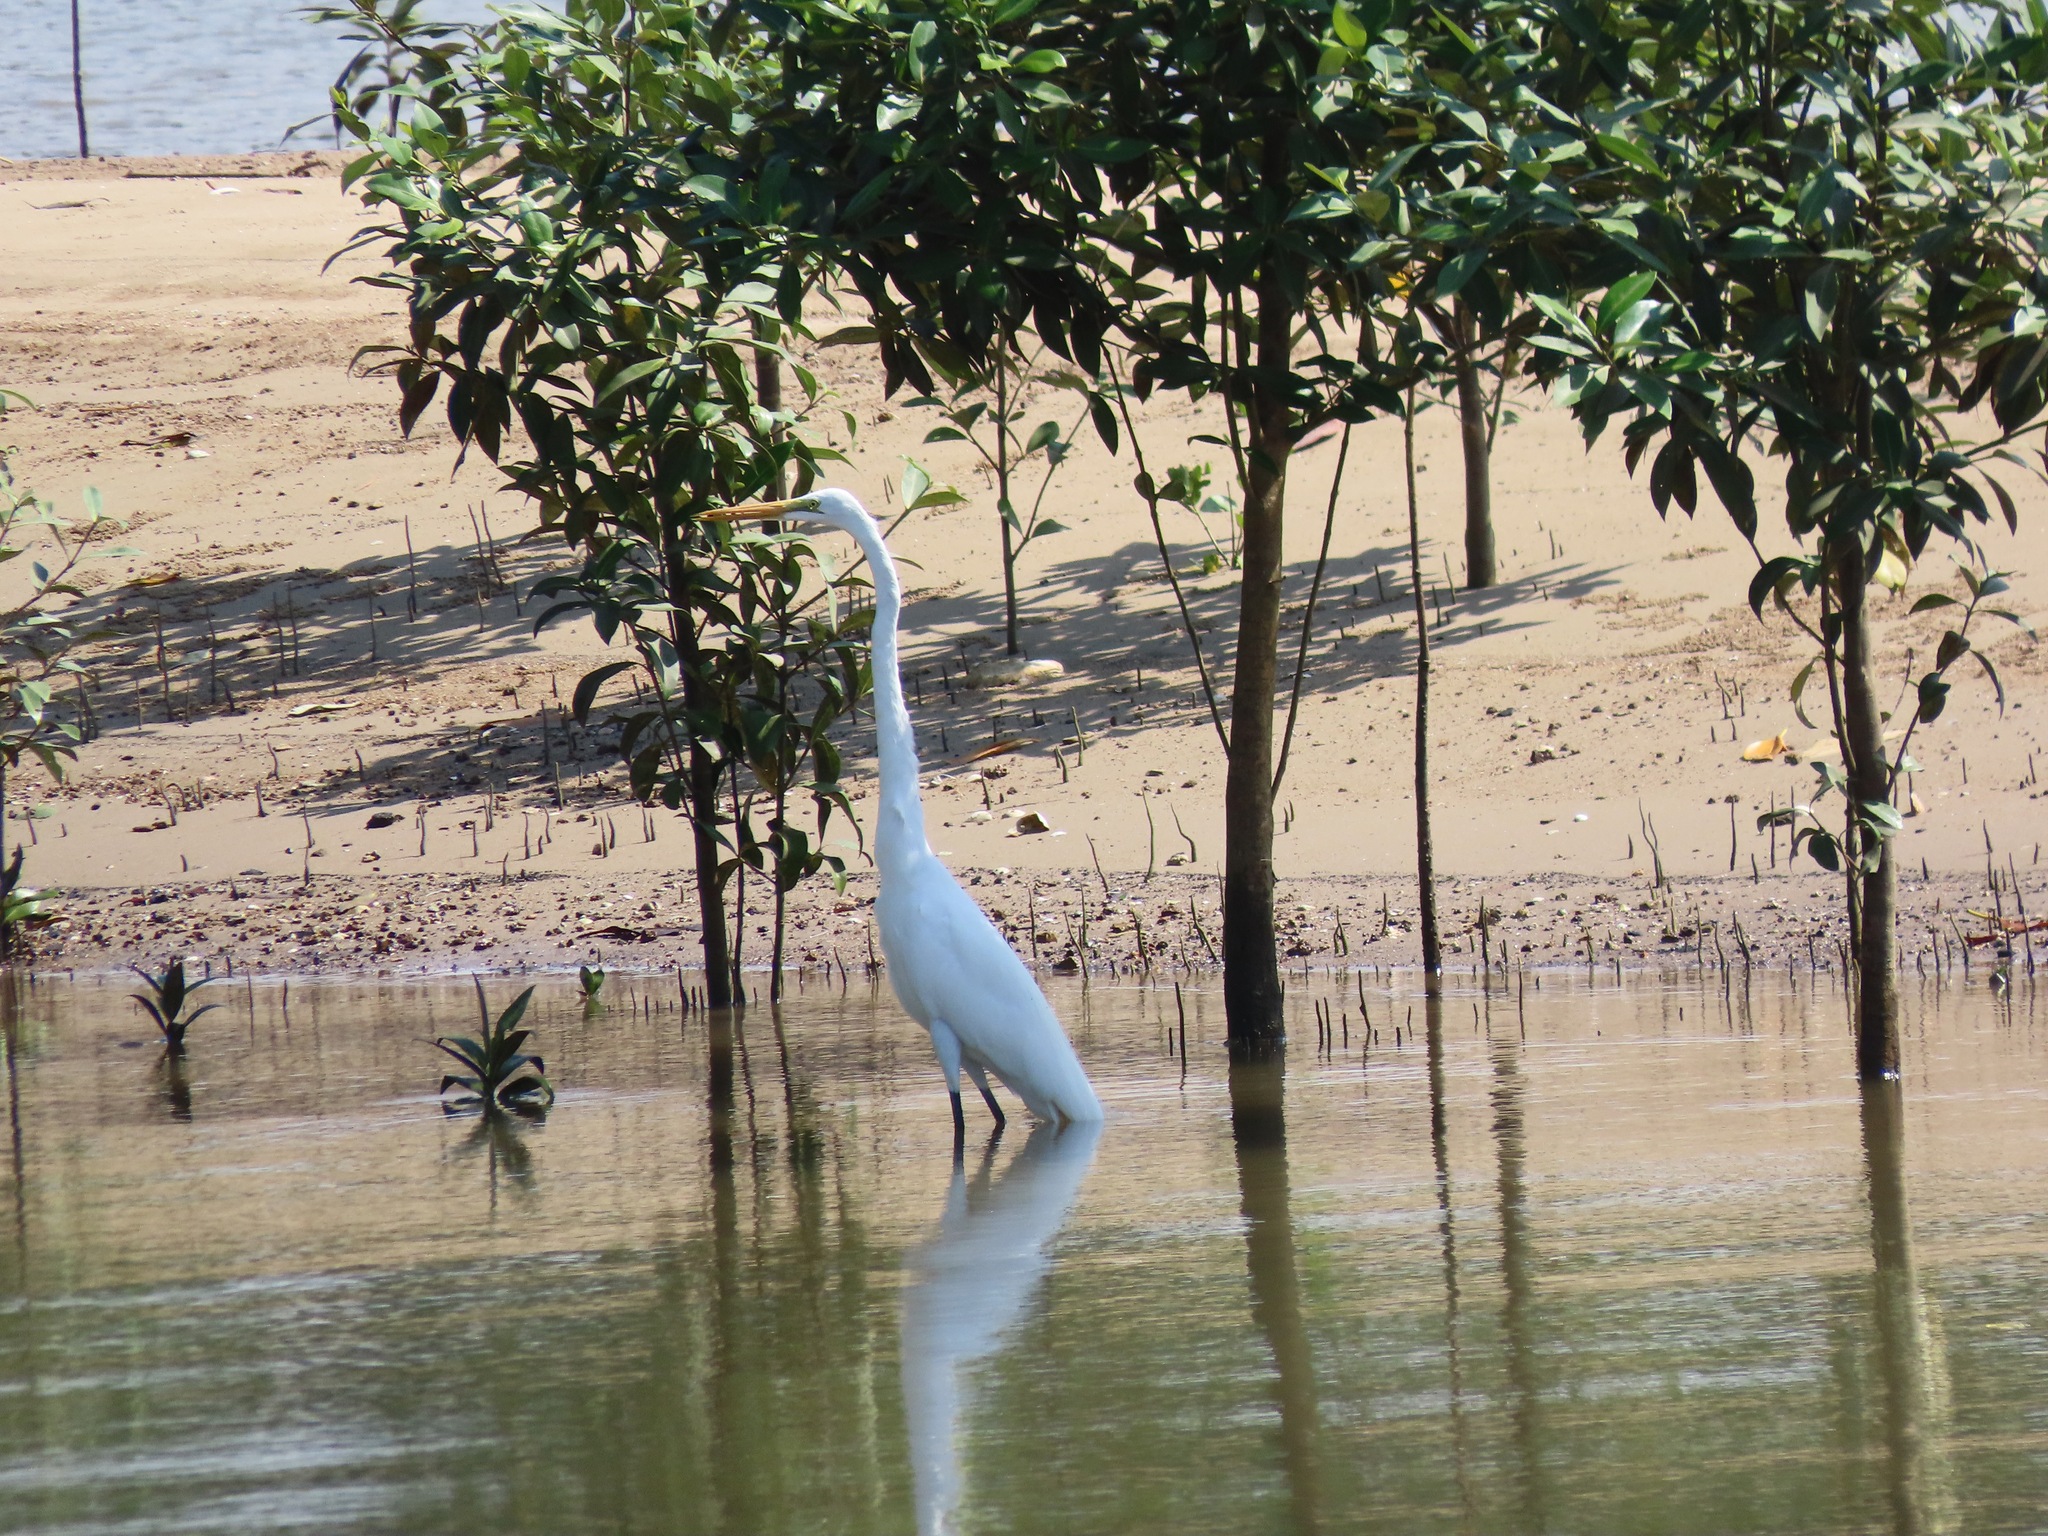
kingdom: Animalia
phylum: Chordata
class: Aves
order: Pelecaniformes
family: Ardeidae
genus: Ardea
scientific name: Ardea alba
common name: Great egret
